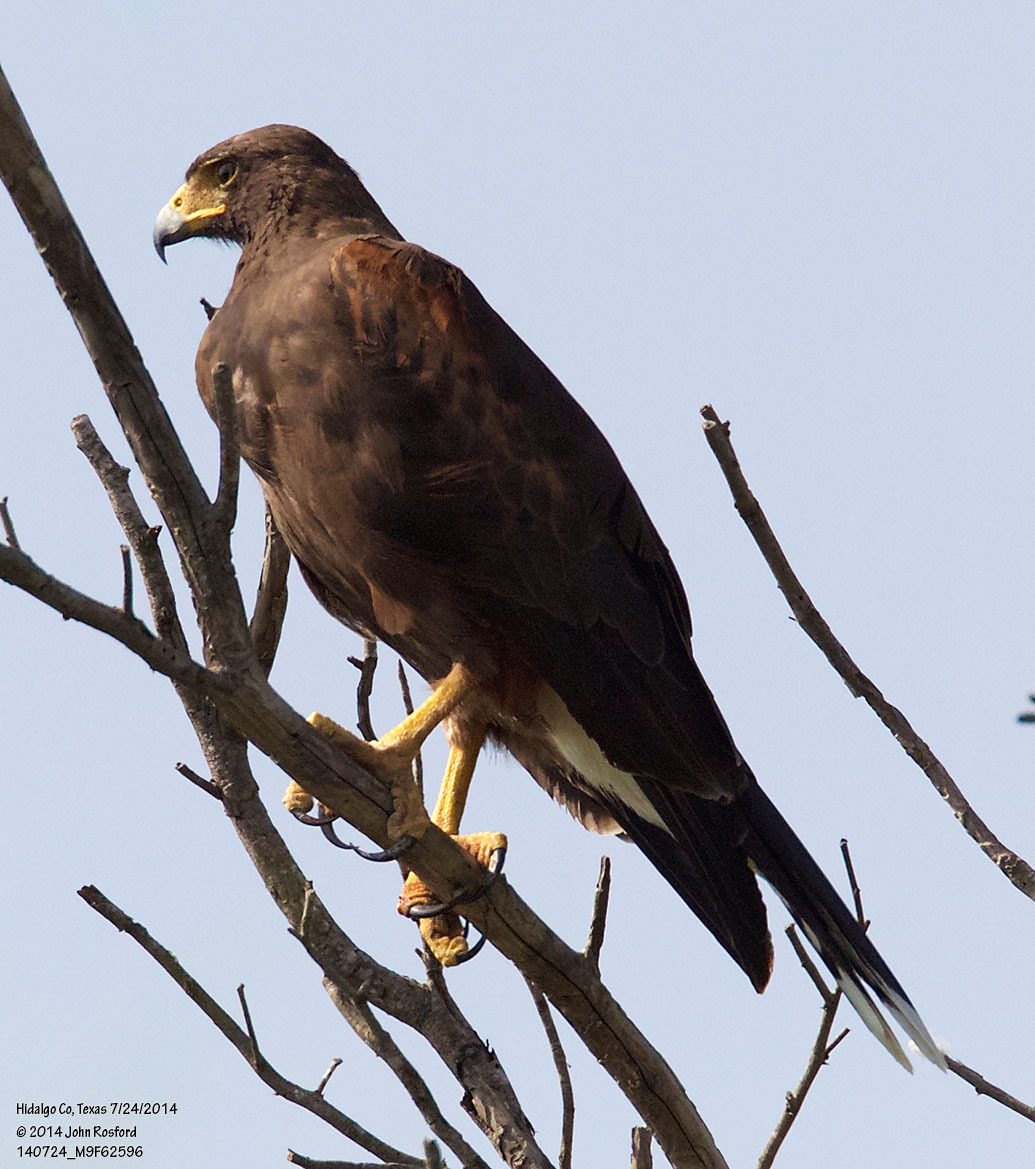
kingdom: Animalia
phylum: Chordata
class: Aves
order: Accipitriformes
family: Accipitridae
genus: Parabuteo
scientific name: Parabuteo unicinctus
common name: Harris's hawk
